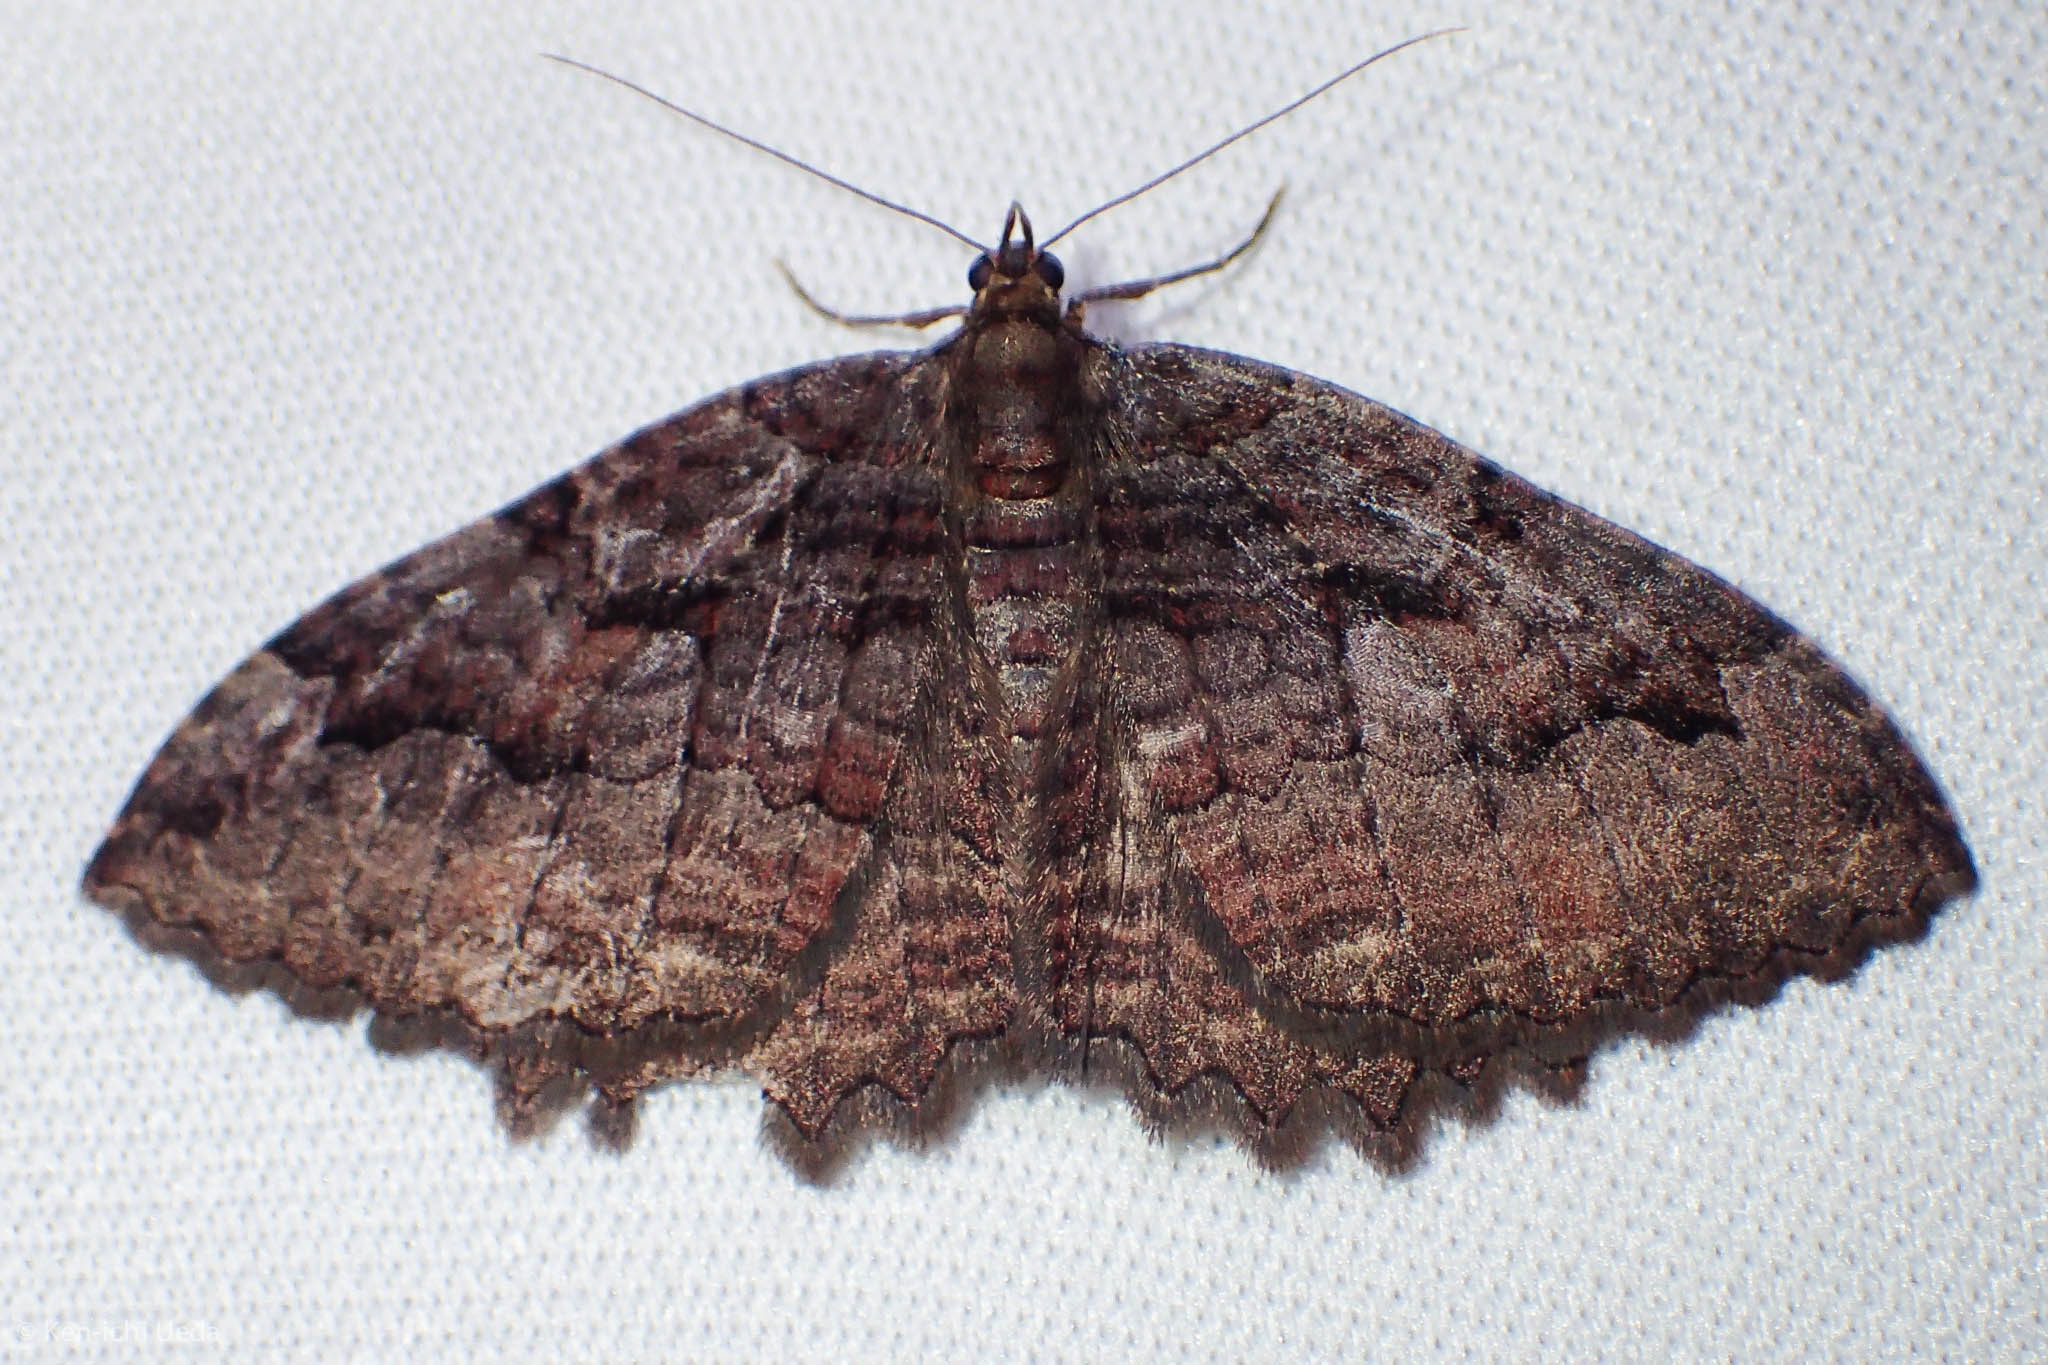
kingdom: Animalia
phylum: Arthropoda
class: Insecta
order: Lepidoptera
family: Geometridae
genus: Triphosa
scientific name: Triphosa haesitata
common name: Tissue moth
